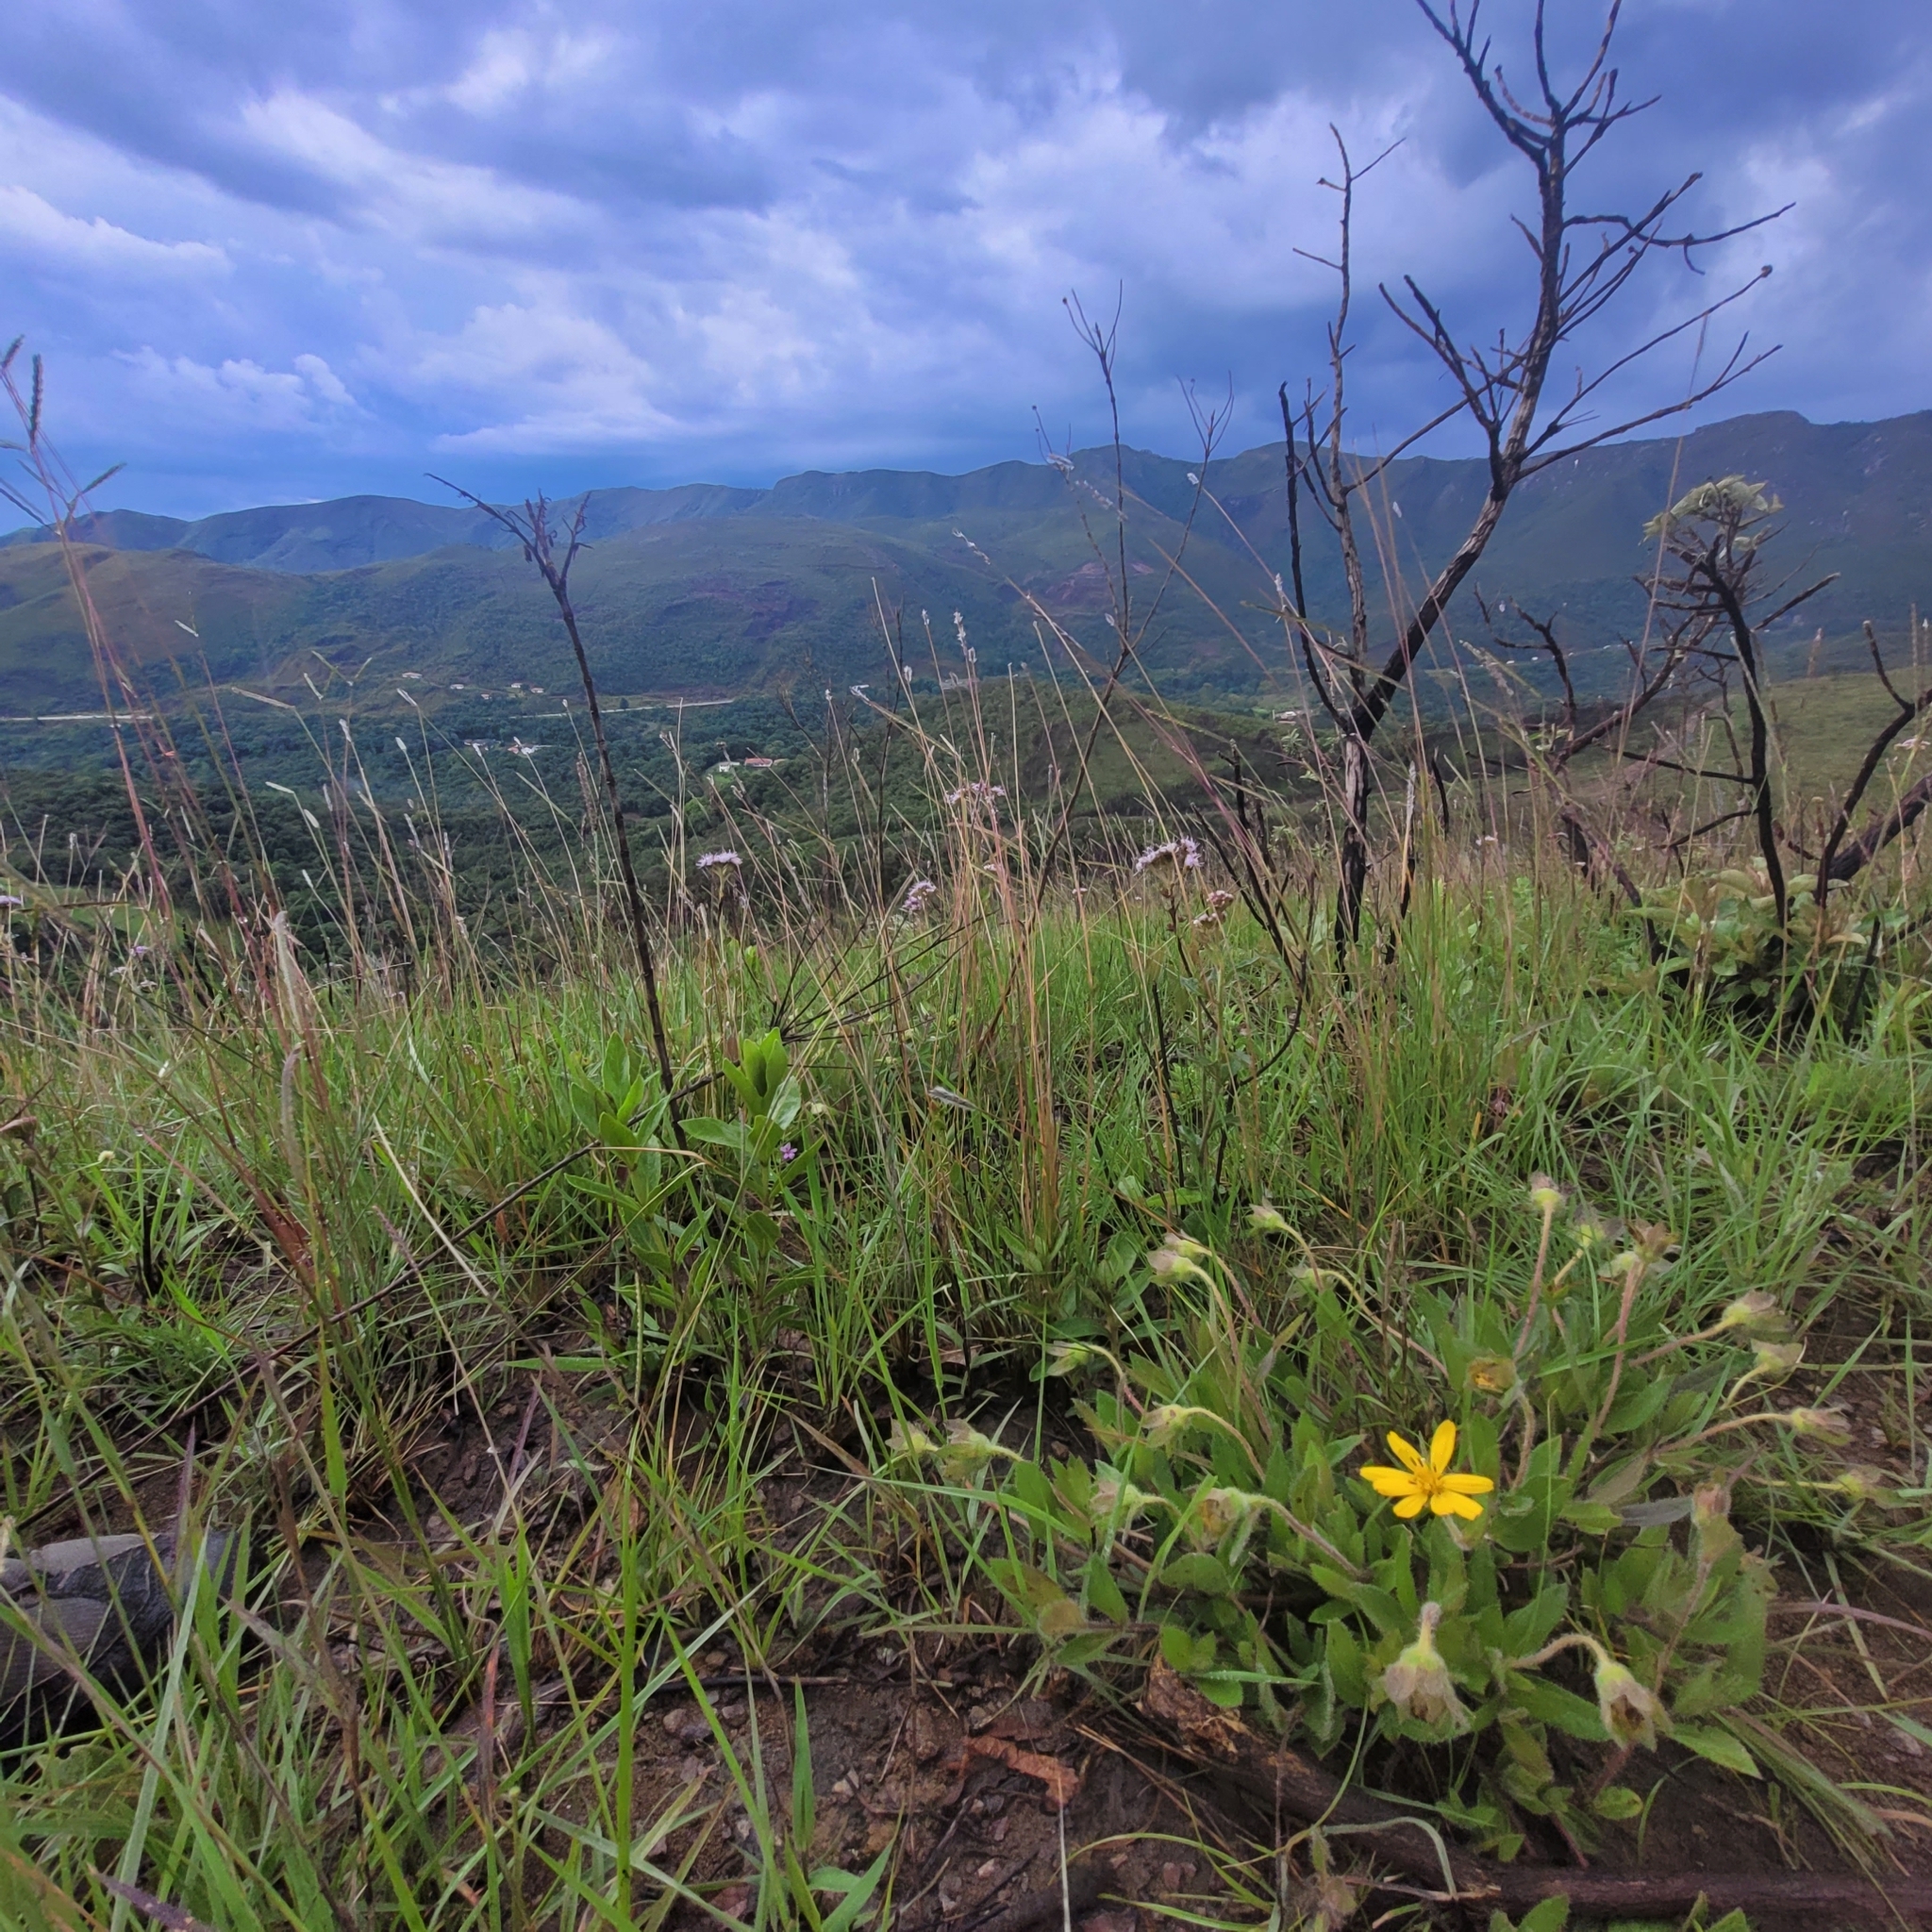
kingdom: Plantae
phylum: Tracheophyta
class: Magnoliopsida
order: Asterales
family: Asteraceae
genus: Sphagneticola
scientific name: Sphagneticola trilobata
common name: Bay biscayne creeping-oxeye
